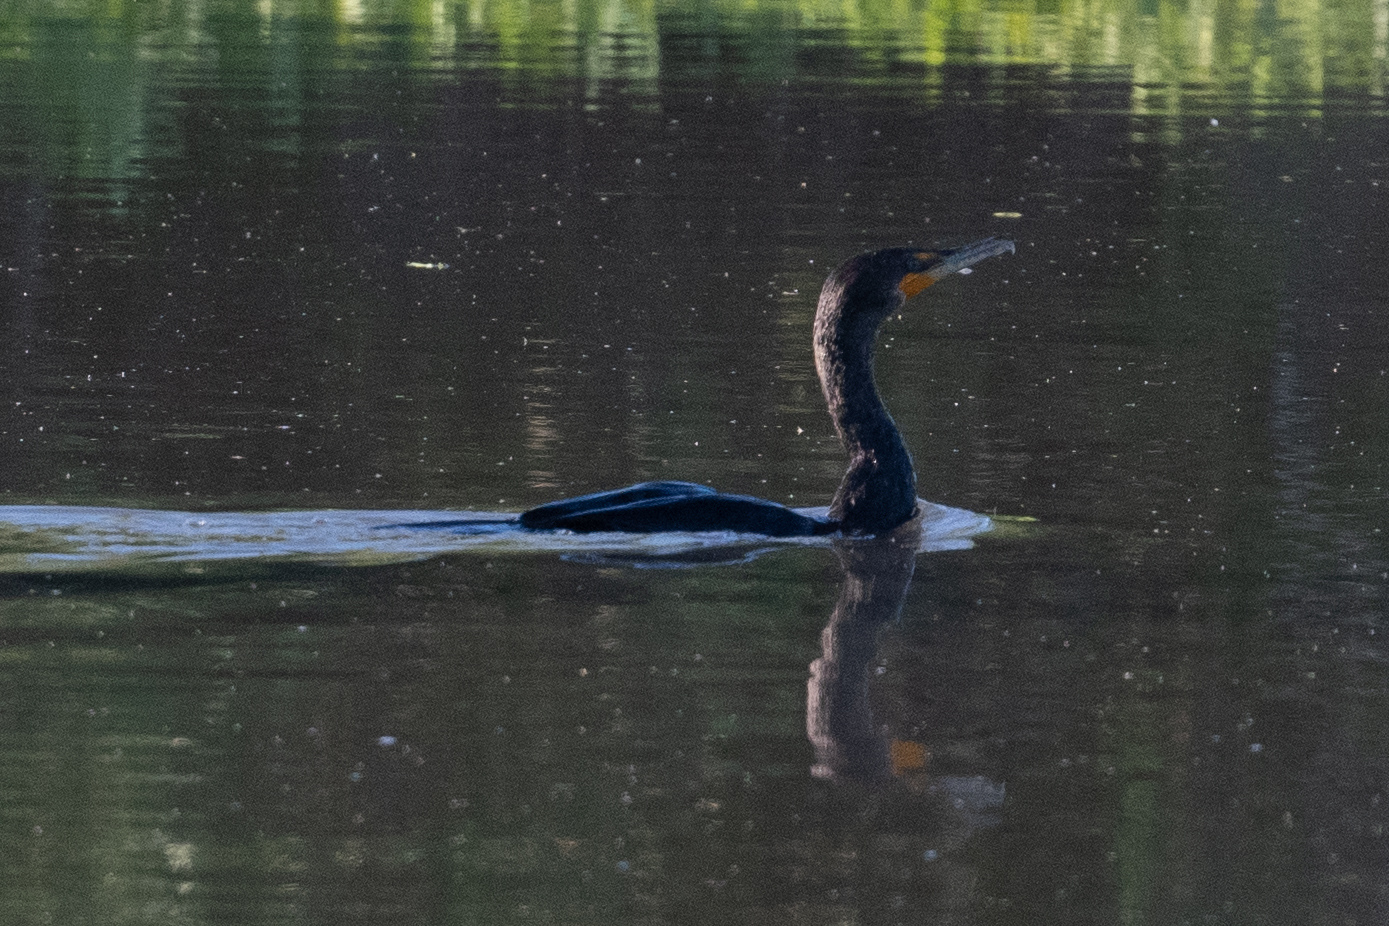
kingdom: Animalia
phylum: Chordata
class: Aves
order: Suliformes
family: Phalacrocoracidae
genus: Phalacrocorax
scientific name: Phalacrocorax auritus
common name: Double-crested cormorant
